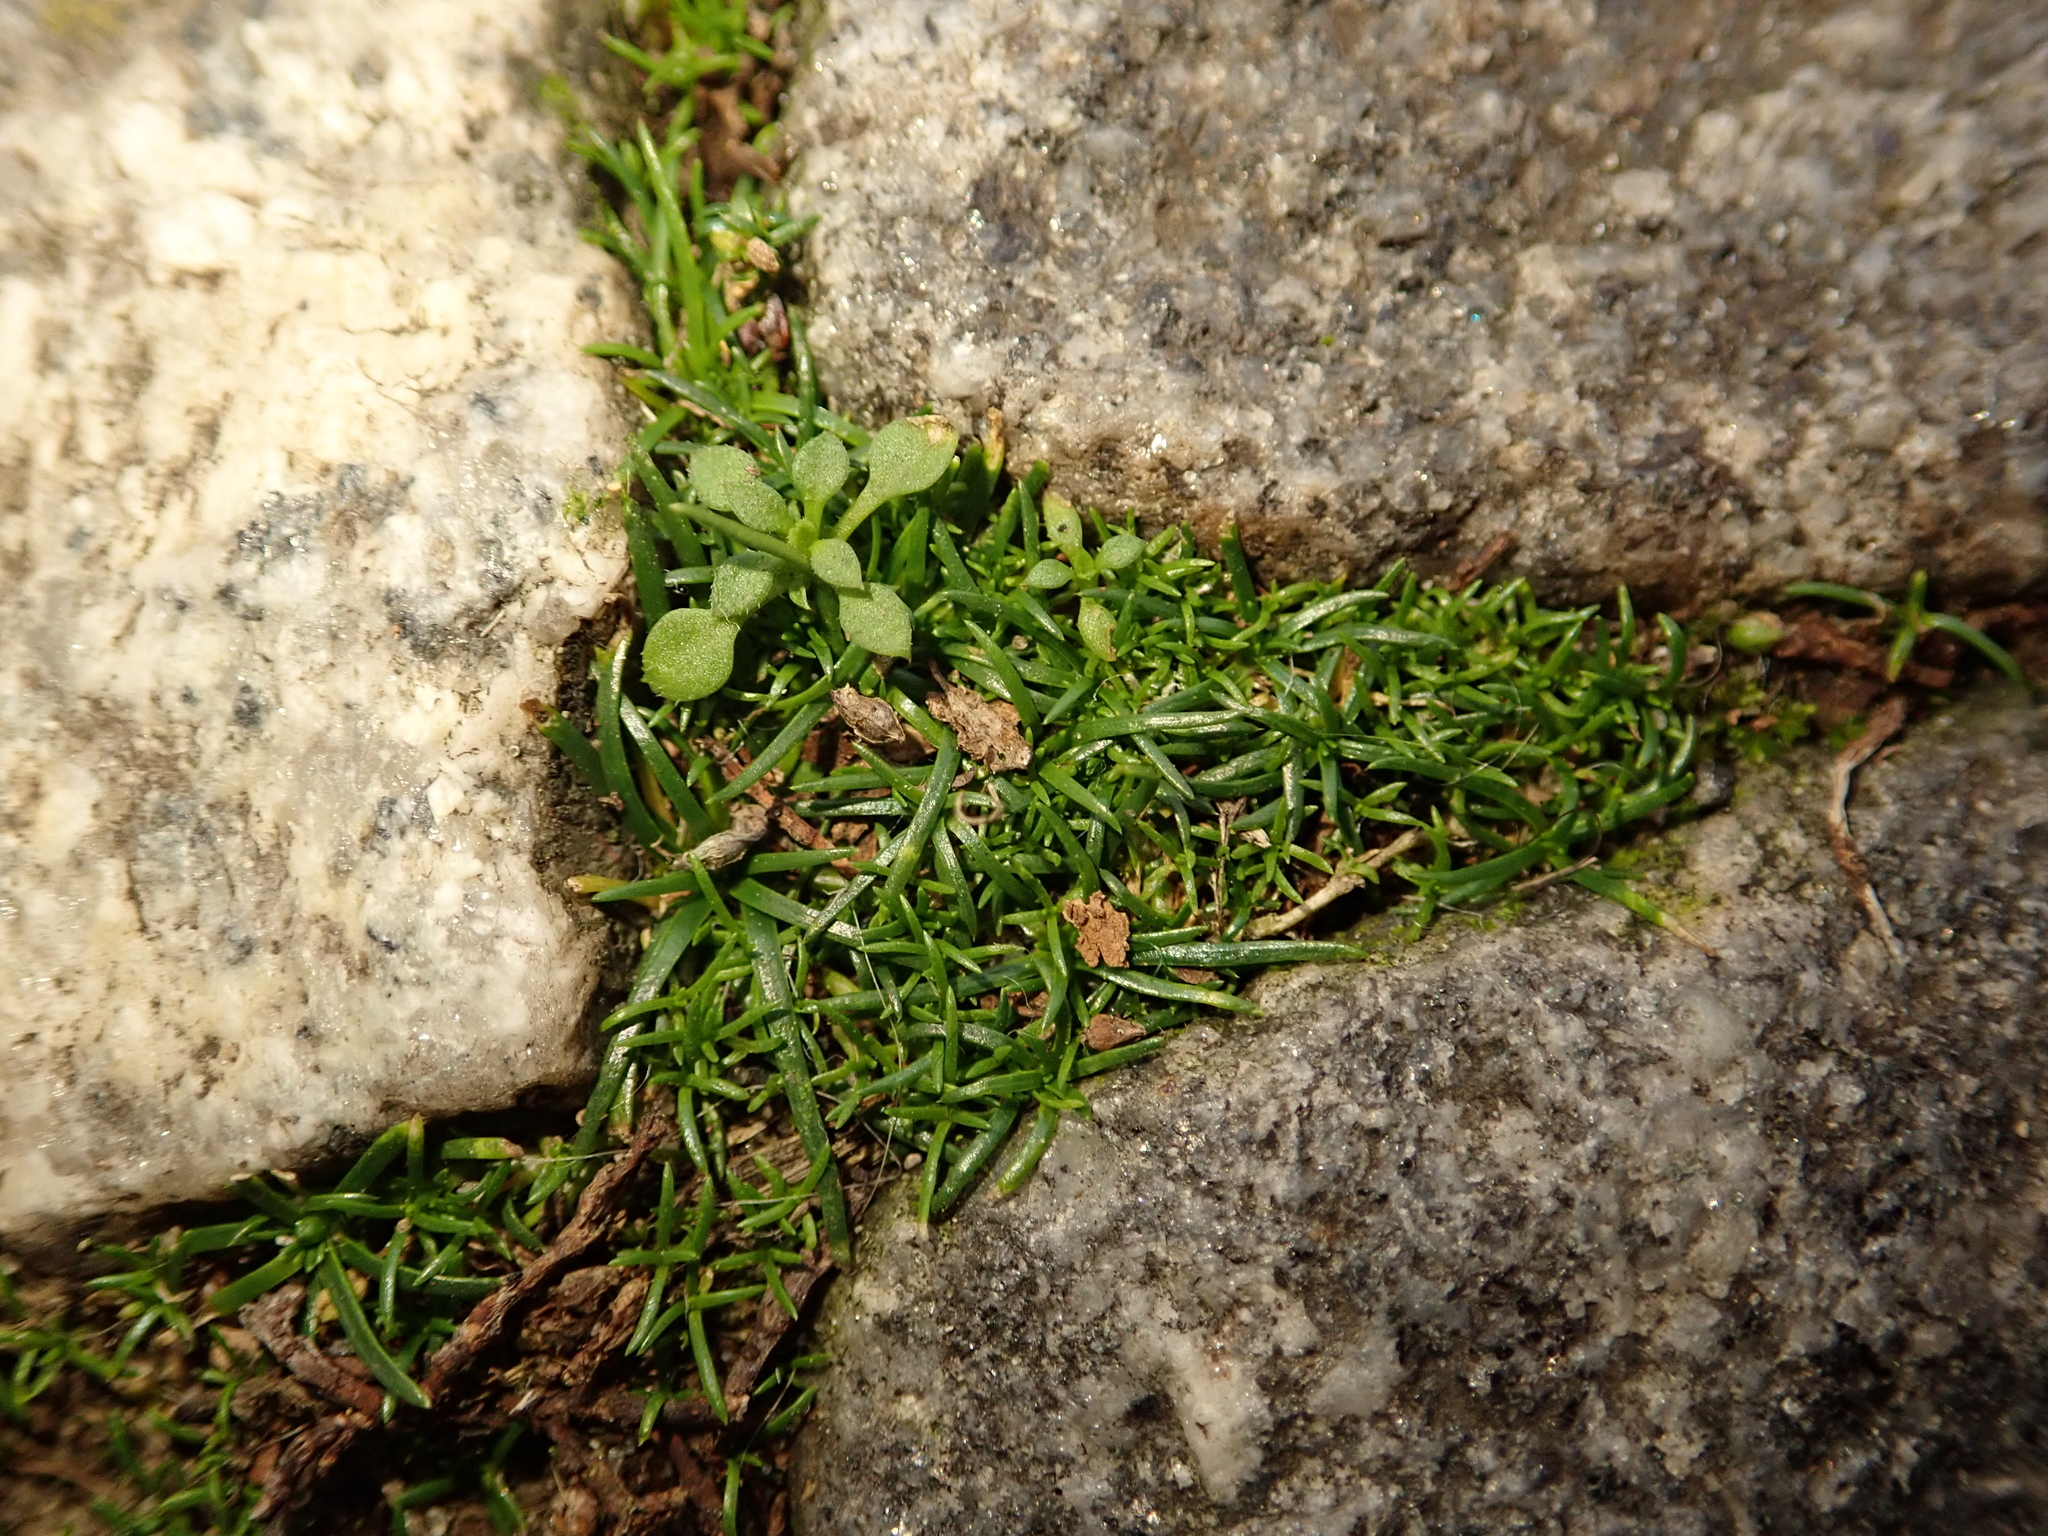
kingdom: Plantae
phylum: Tracheophyta
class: Magnoliopsida
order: Caryophyllales
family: Caryophyllaceae
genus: Sagina
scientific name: Sagina procumbens
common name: Procumbent pearlwort
